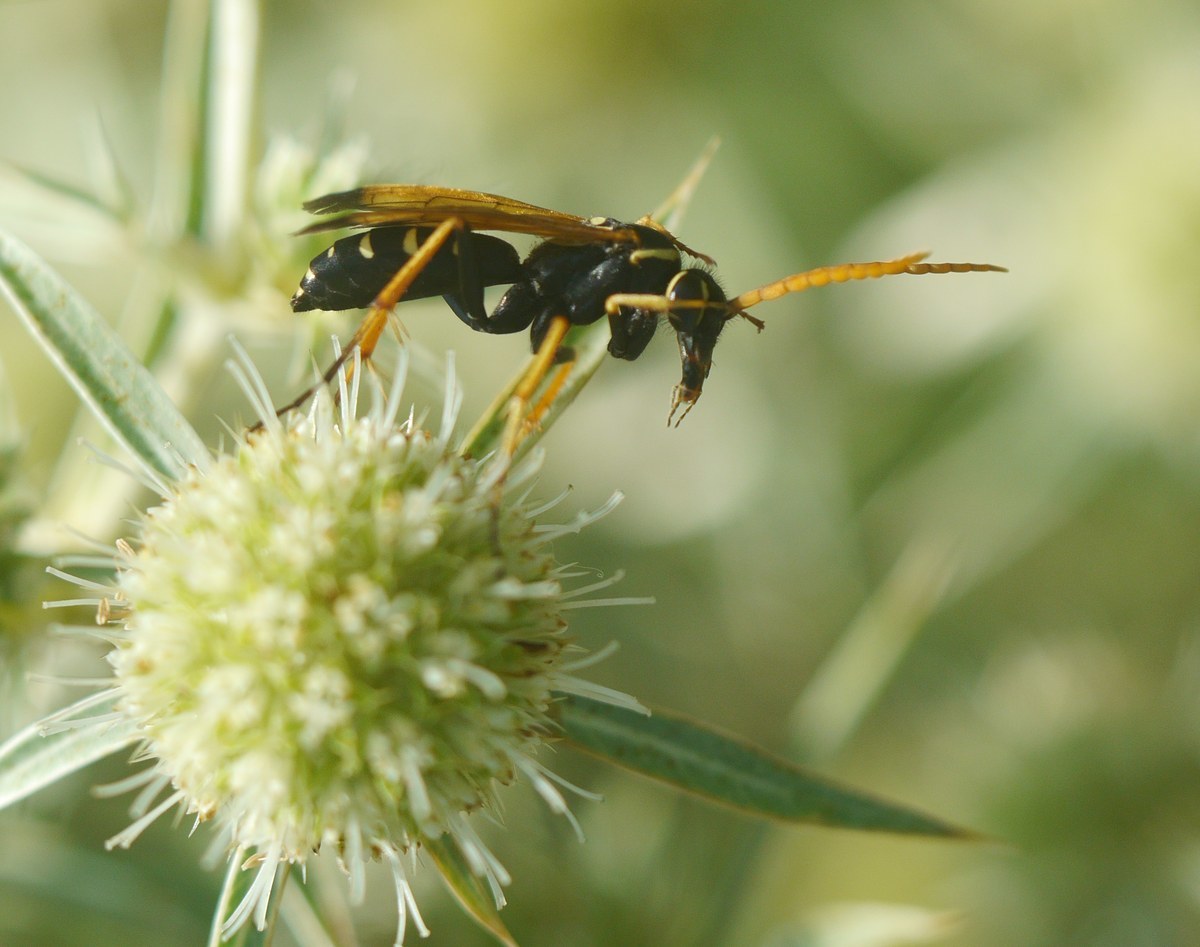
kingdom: Animalia
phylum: Arthropoda
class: Insecta
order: Hymenoptera
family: Pompilidae
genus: Parabatozonus
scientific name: Parabatozonus lacerticida
